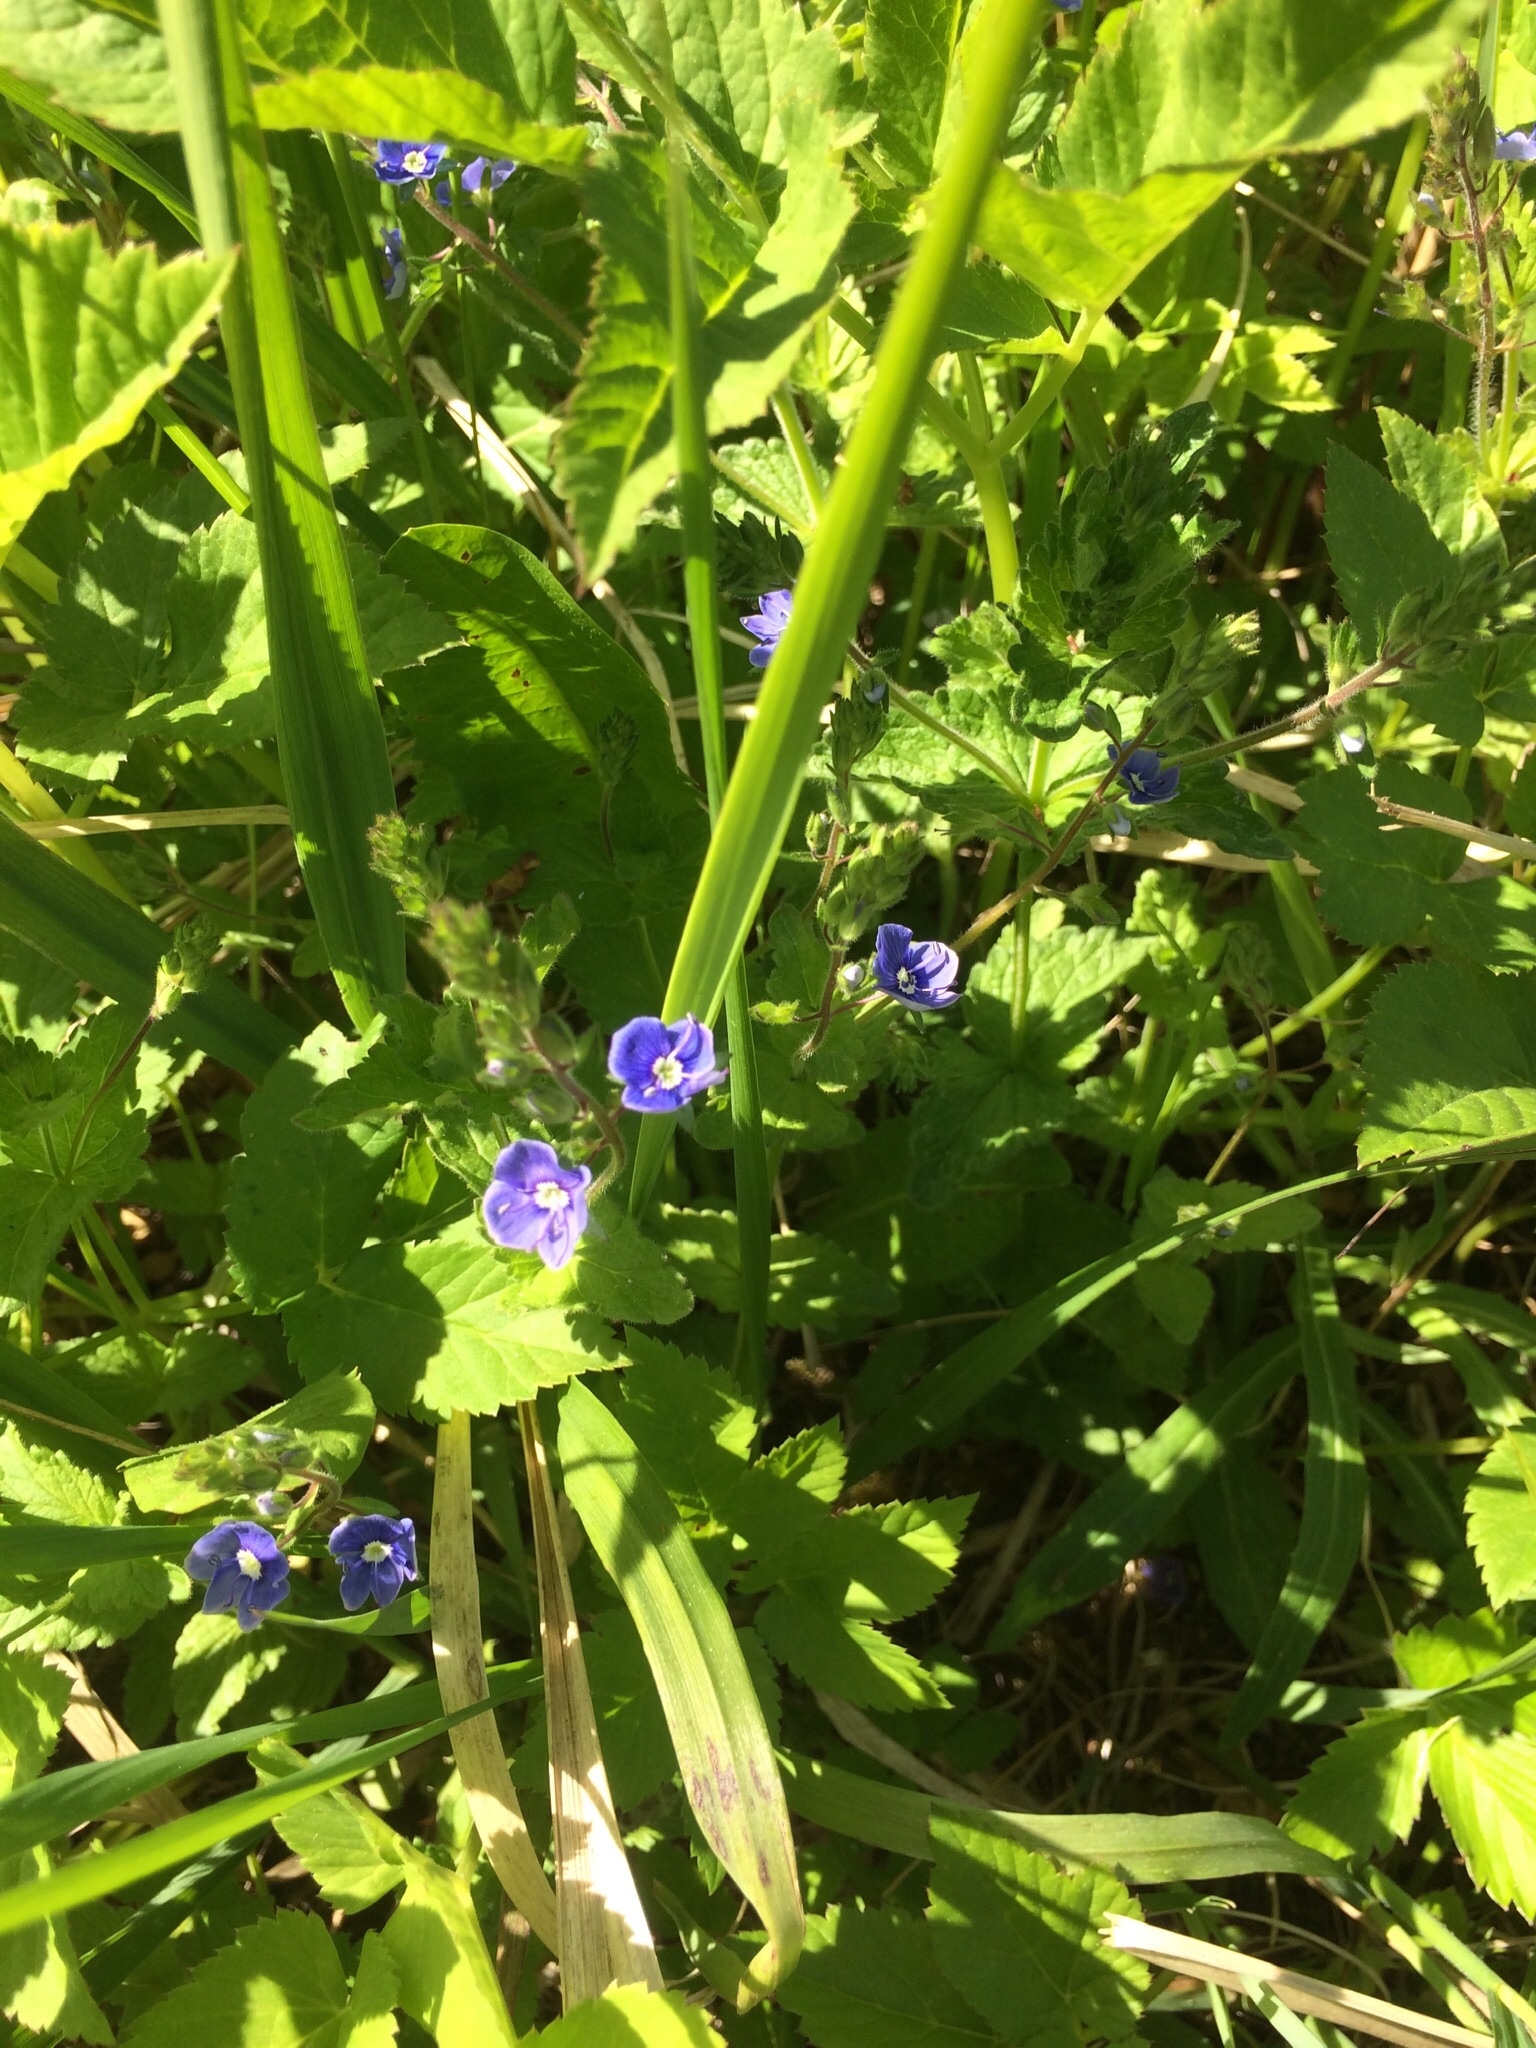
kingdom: Plantae
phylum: Tracheophyta
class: Magnoliopsida
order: Lamiales
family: Plantaginaceae
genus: Veronica
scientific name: Veronica chamaedrys
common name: Germander speedwell
